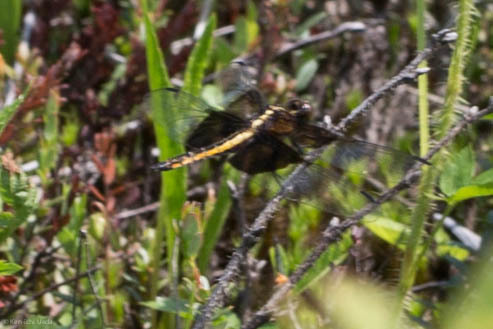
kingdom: Animalia
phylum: Arthropoda
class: Insecta
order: Odonata
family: Libellulidae
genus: Libellula
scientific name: Libellula luctuosa
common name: Widow skimmer
